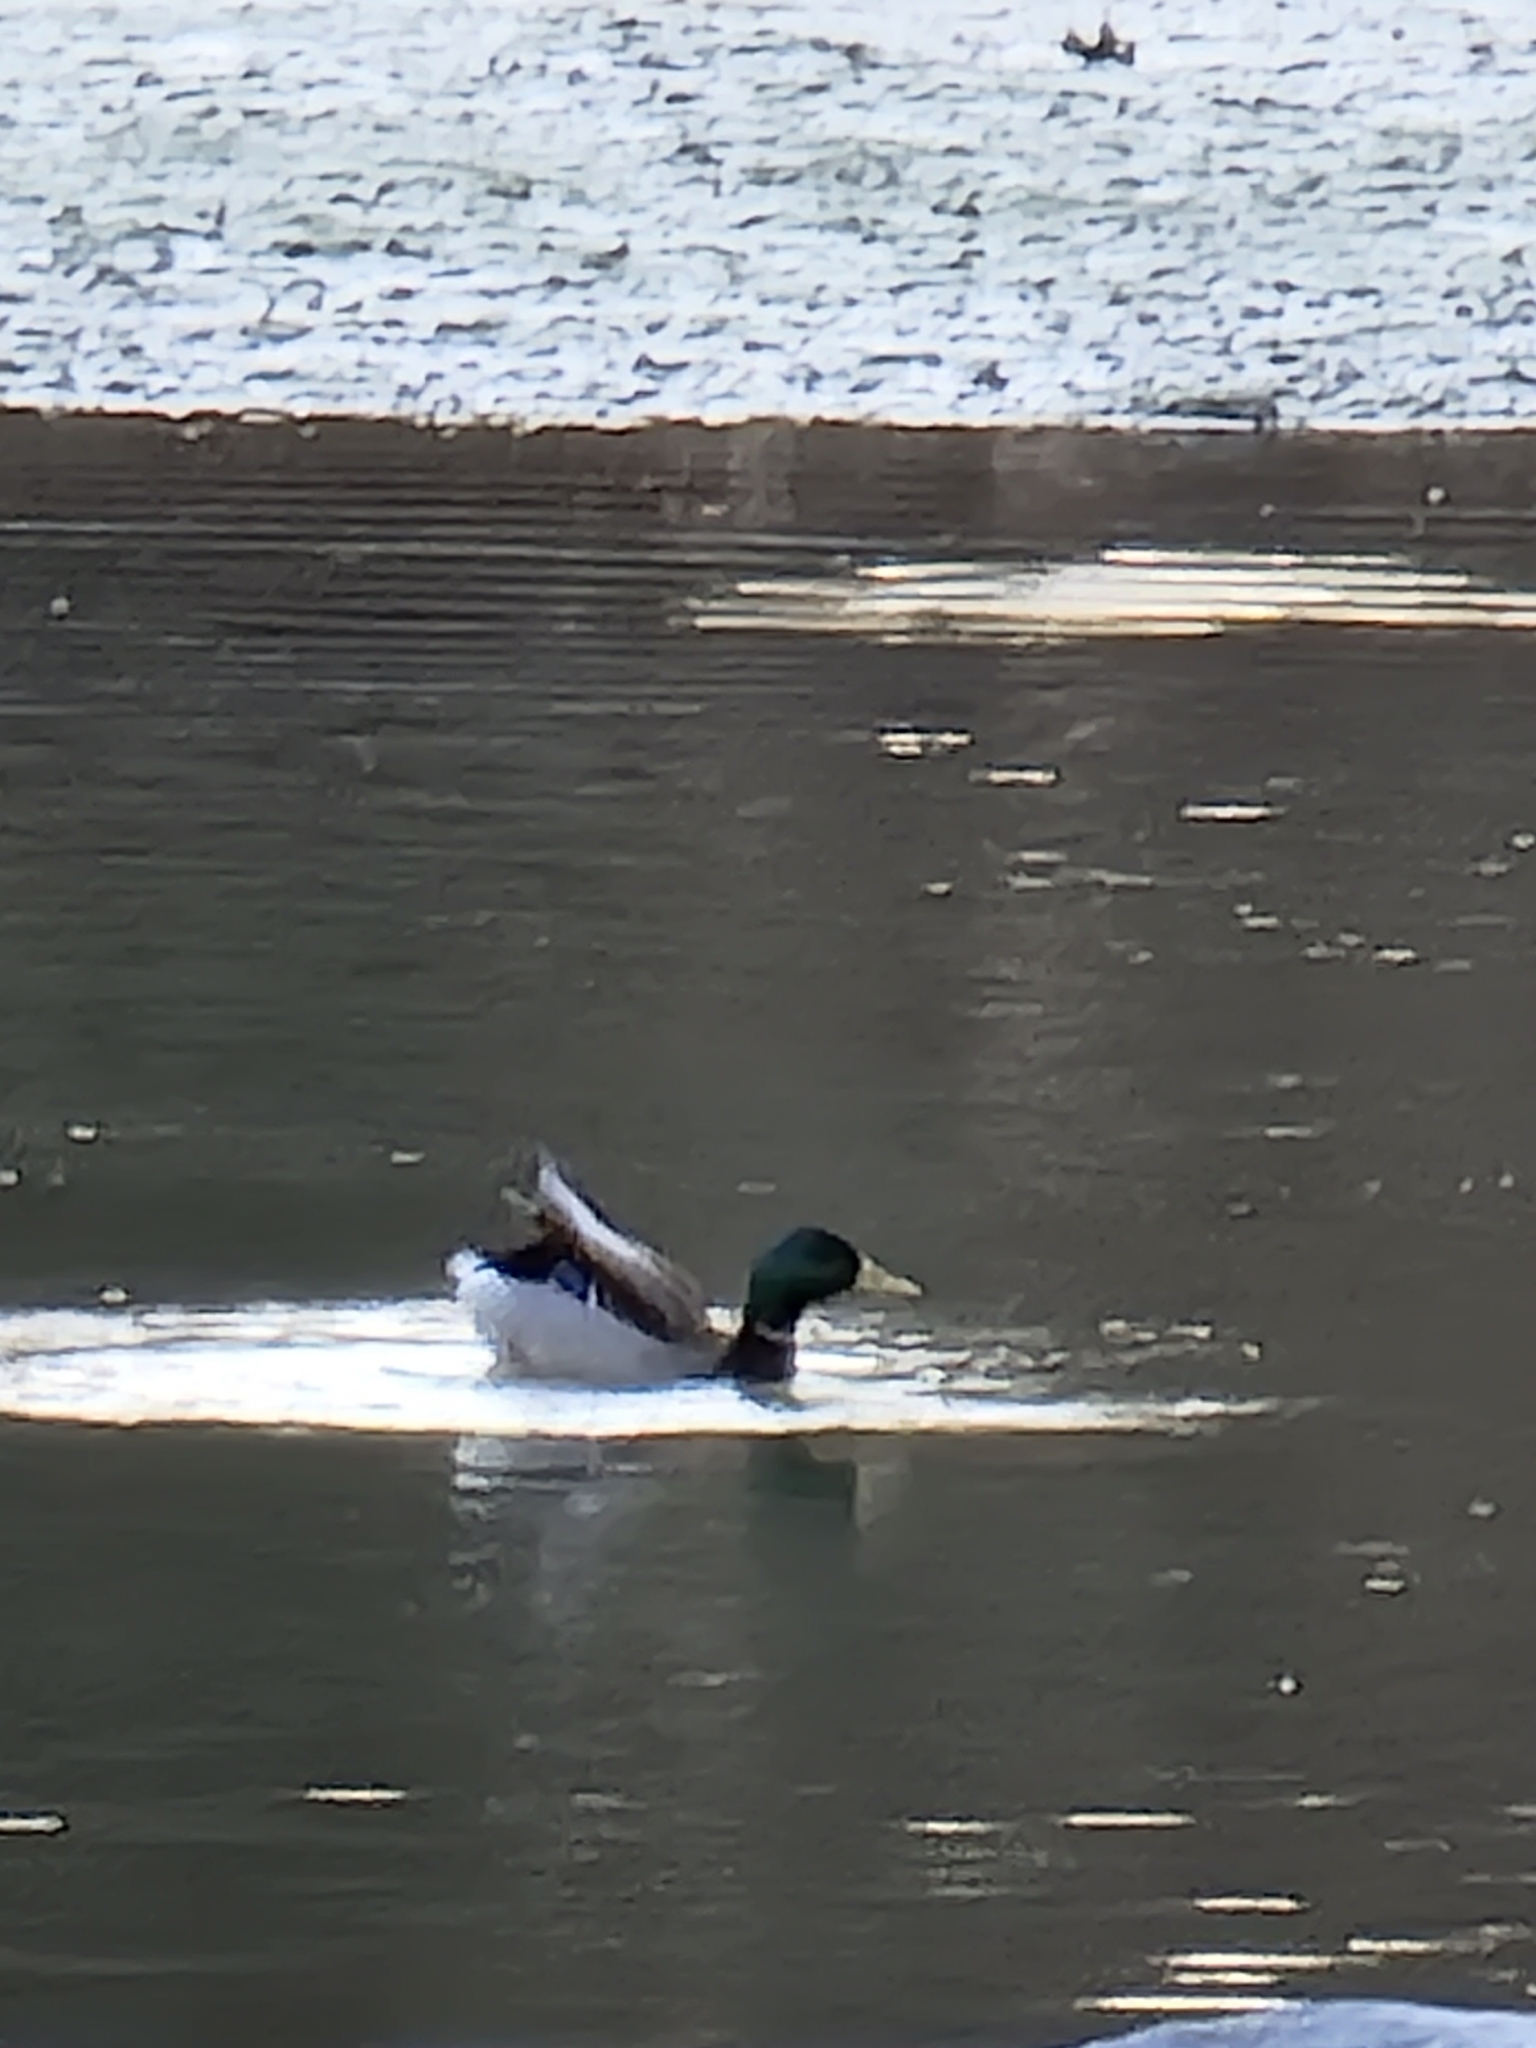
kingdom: Animalia
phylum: Chordata
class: Aves
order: Anseriformes
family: Anatidae
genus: Anas
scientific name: Anas platyrhynchos
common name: Mallard
